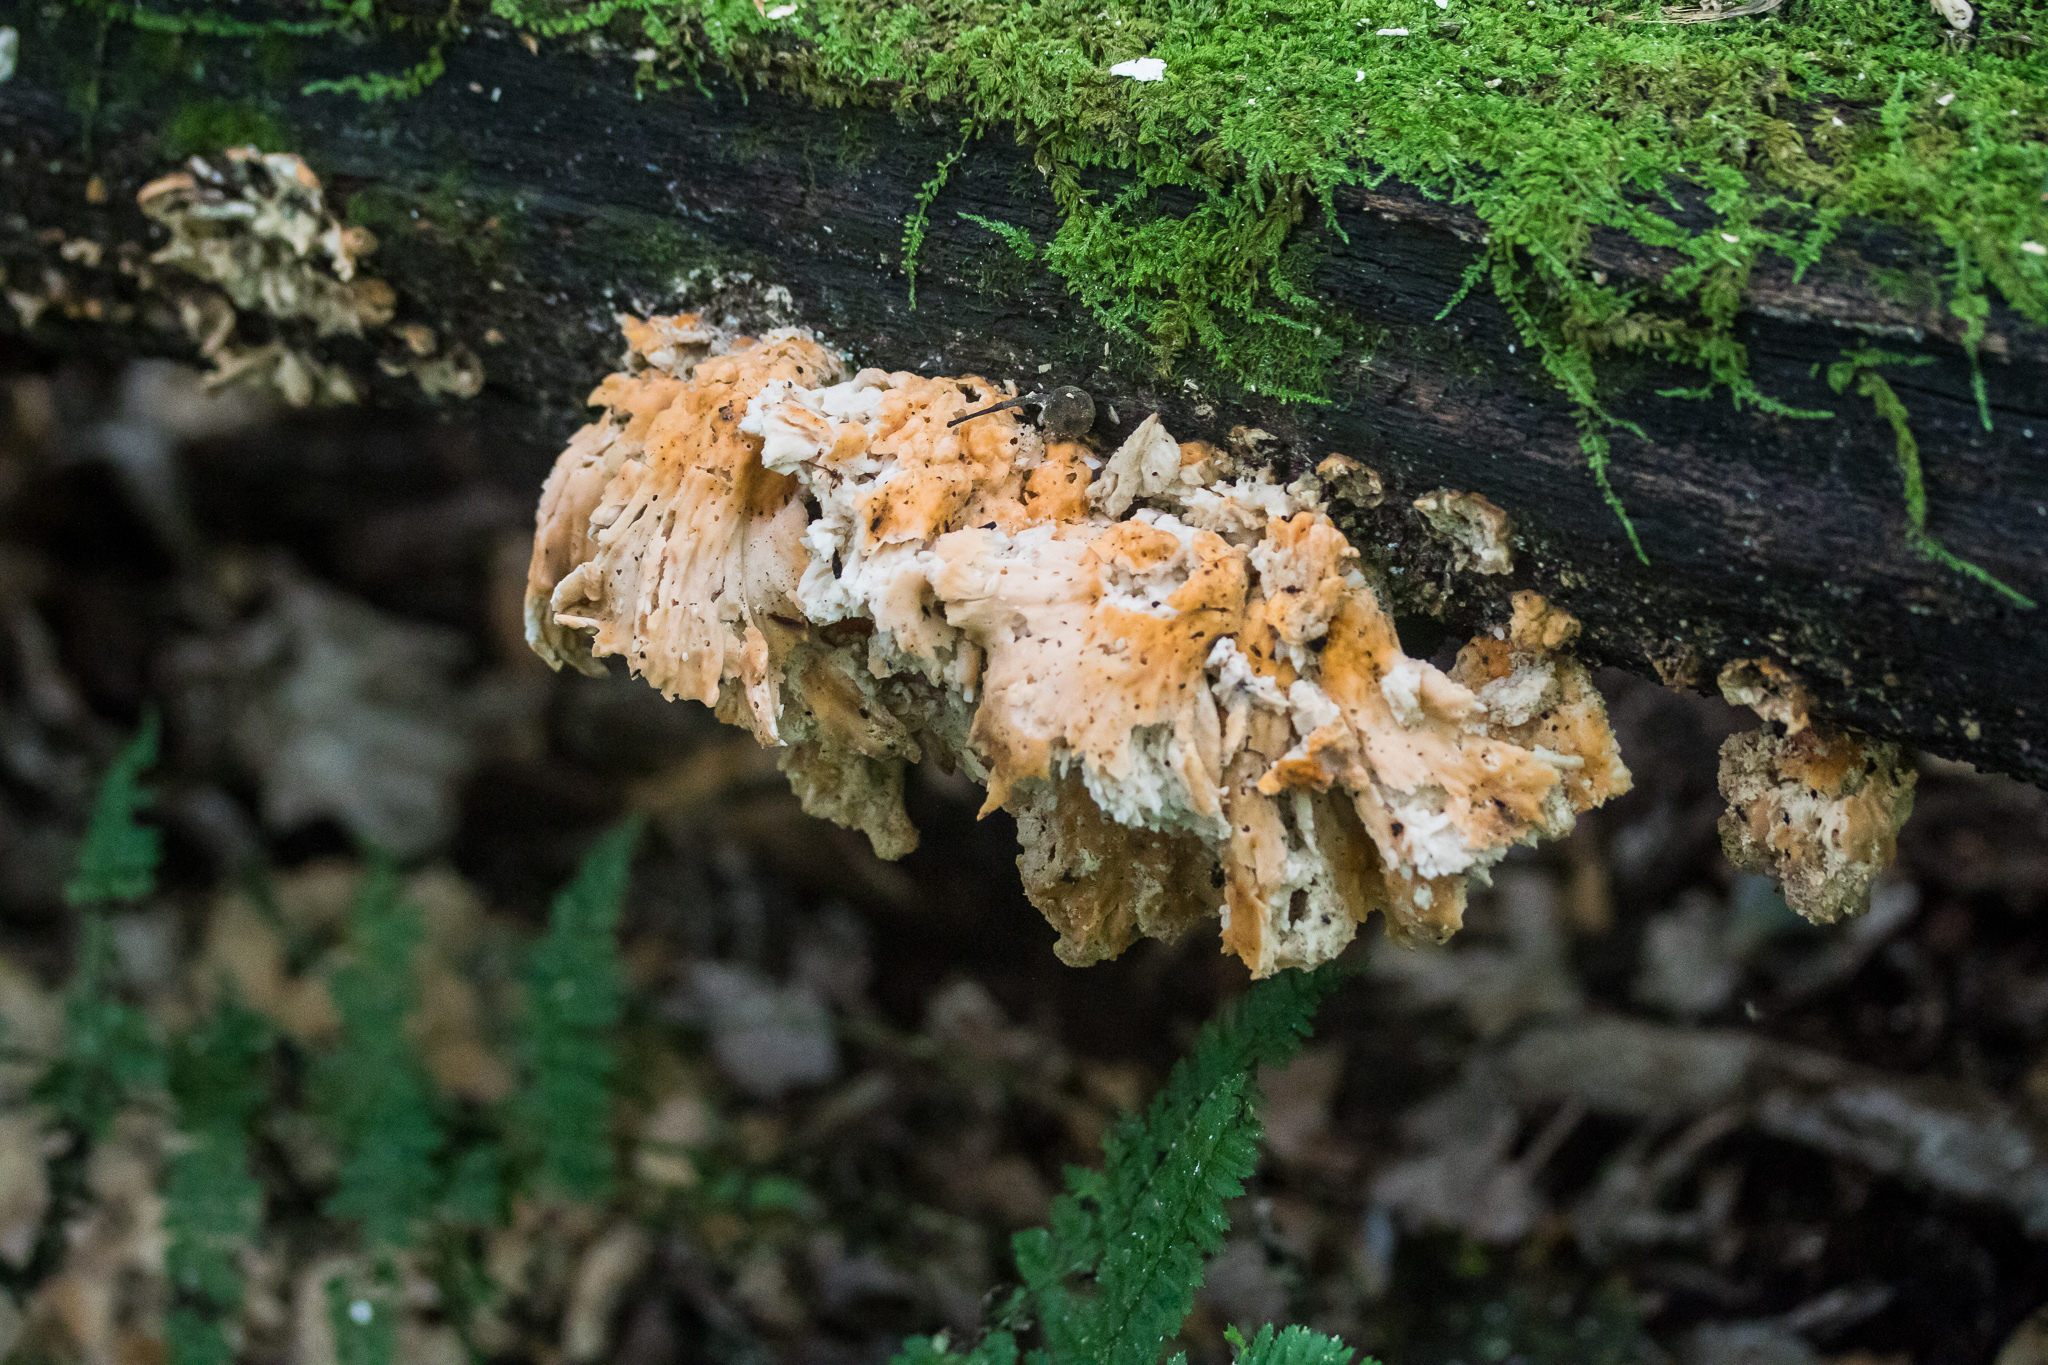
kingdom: Fungi
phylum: Basidiomycota
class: Agaricomycetes
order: Polyporales
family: Laetiporaceae
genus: Laetiporus
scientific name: Laetiporus sulphureus
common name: Chicken of the woods
